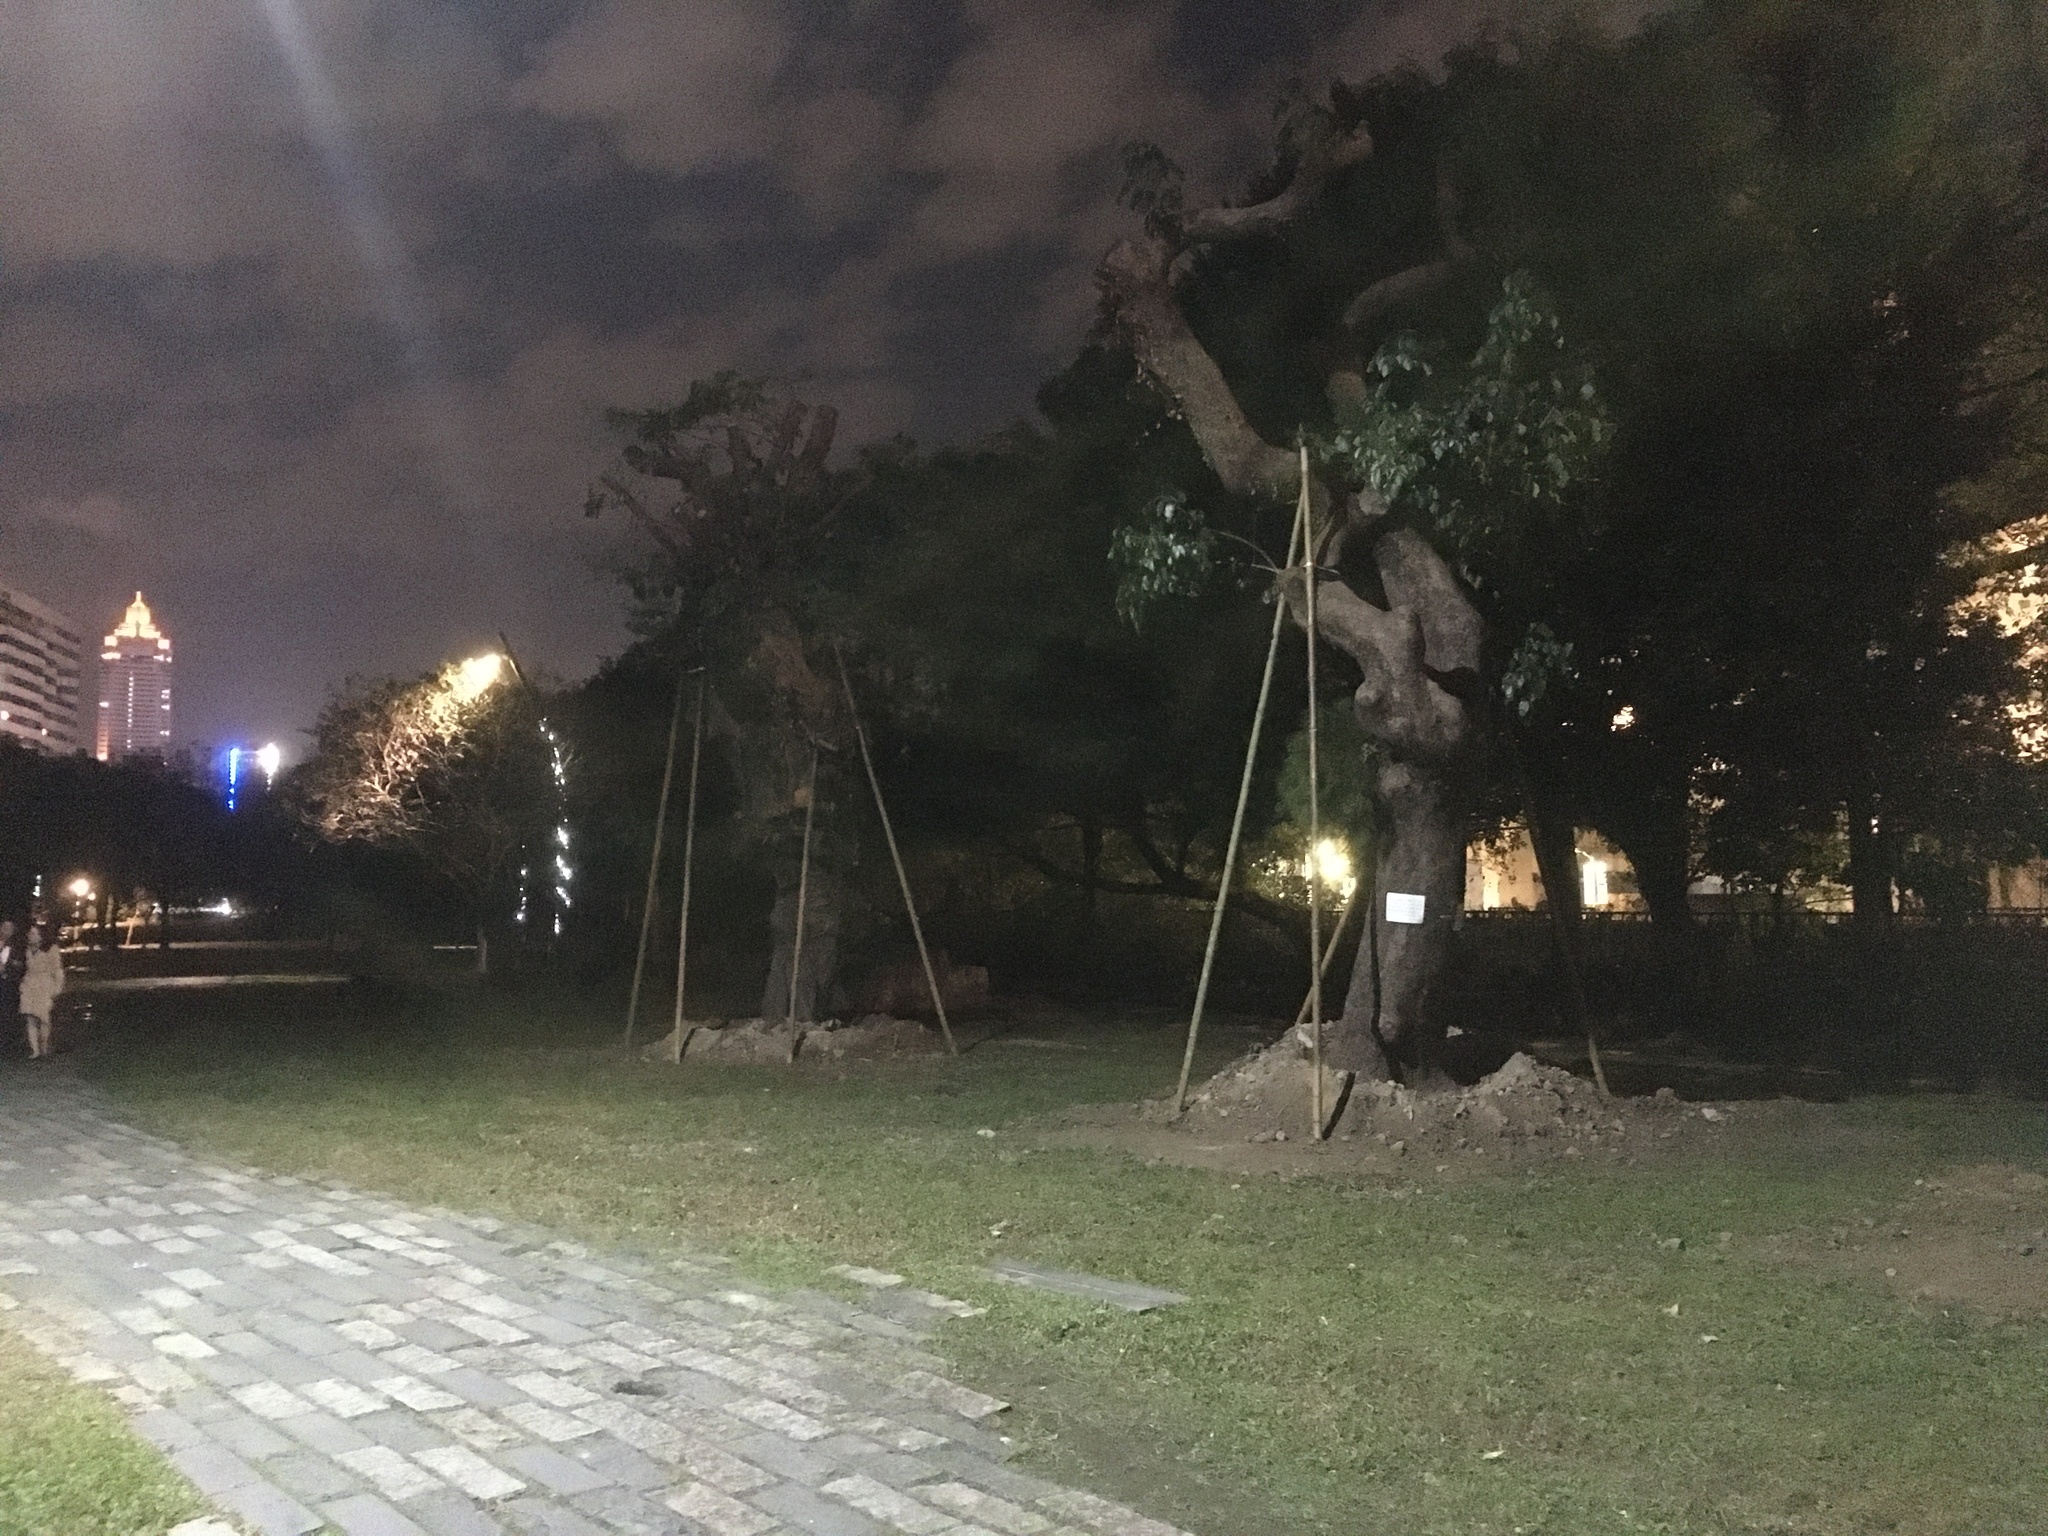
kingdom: Animalia
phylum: Chordata
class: Aves
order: Pelecaniformes
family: Ardeidae
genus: Gorsachius
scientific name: Gorsachius melanolophus
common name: Malayan night heron
